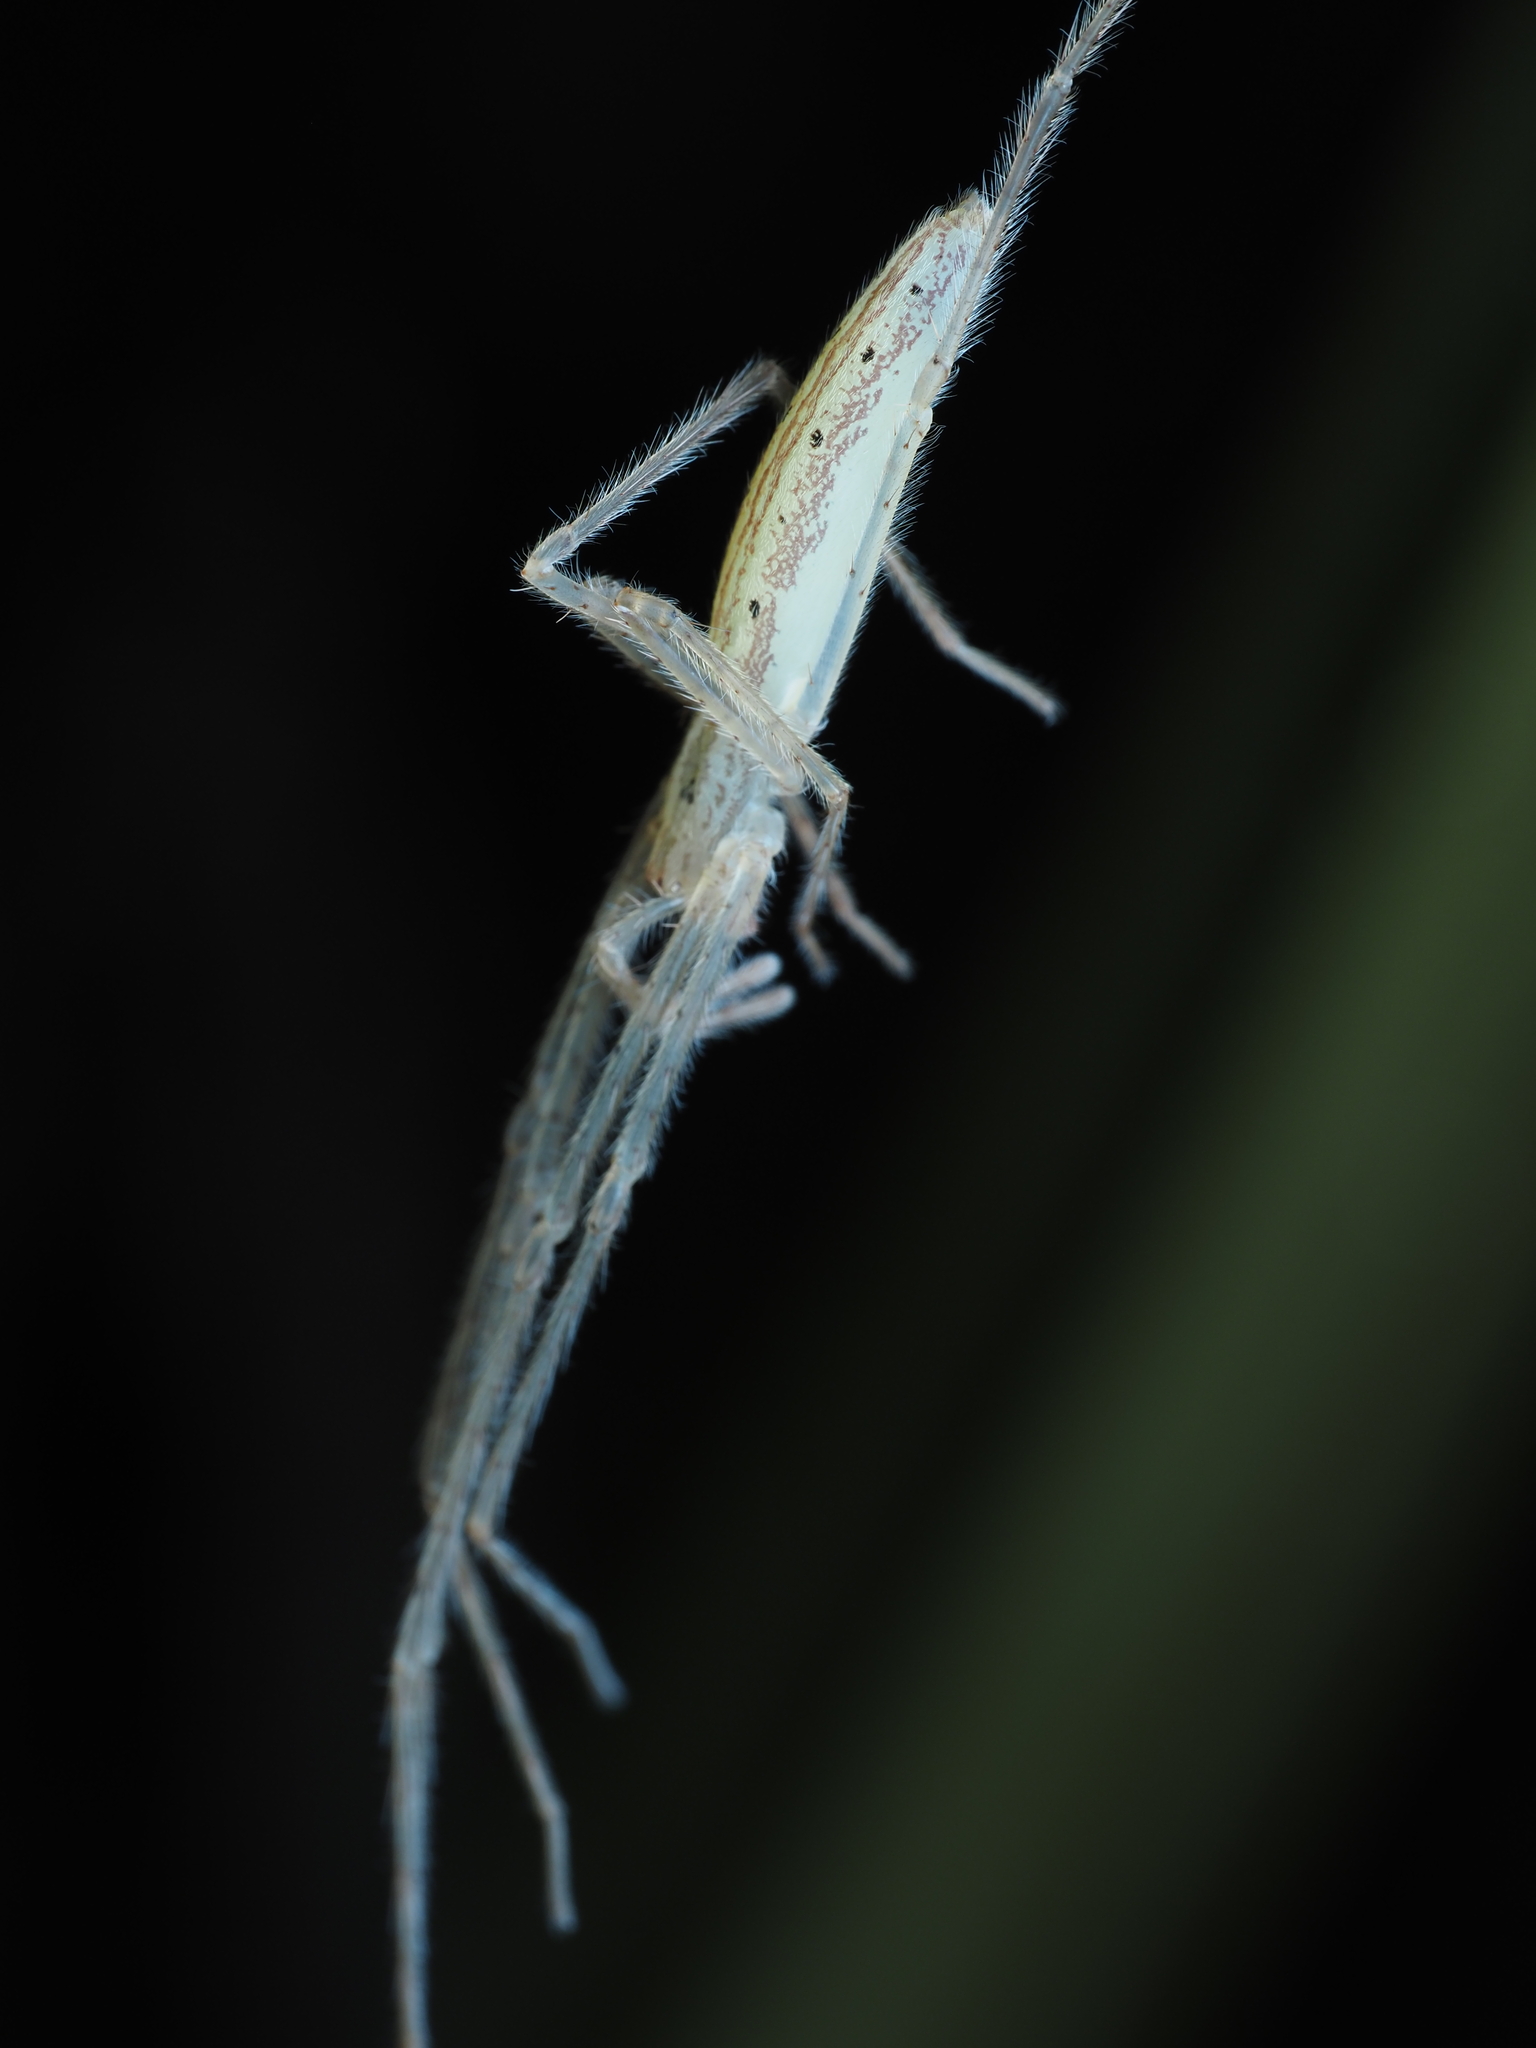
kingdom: Animalia
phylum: Arthropoda
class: Arachnida
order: Araneae
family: Desidae
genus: Ischalea
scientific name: Ischalea spinipes
